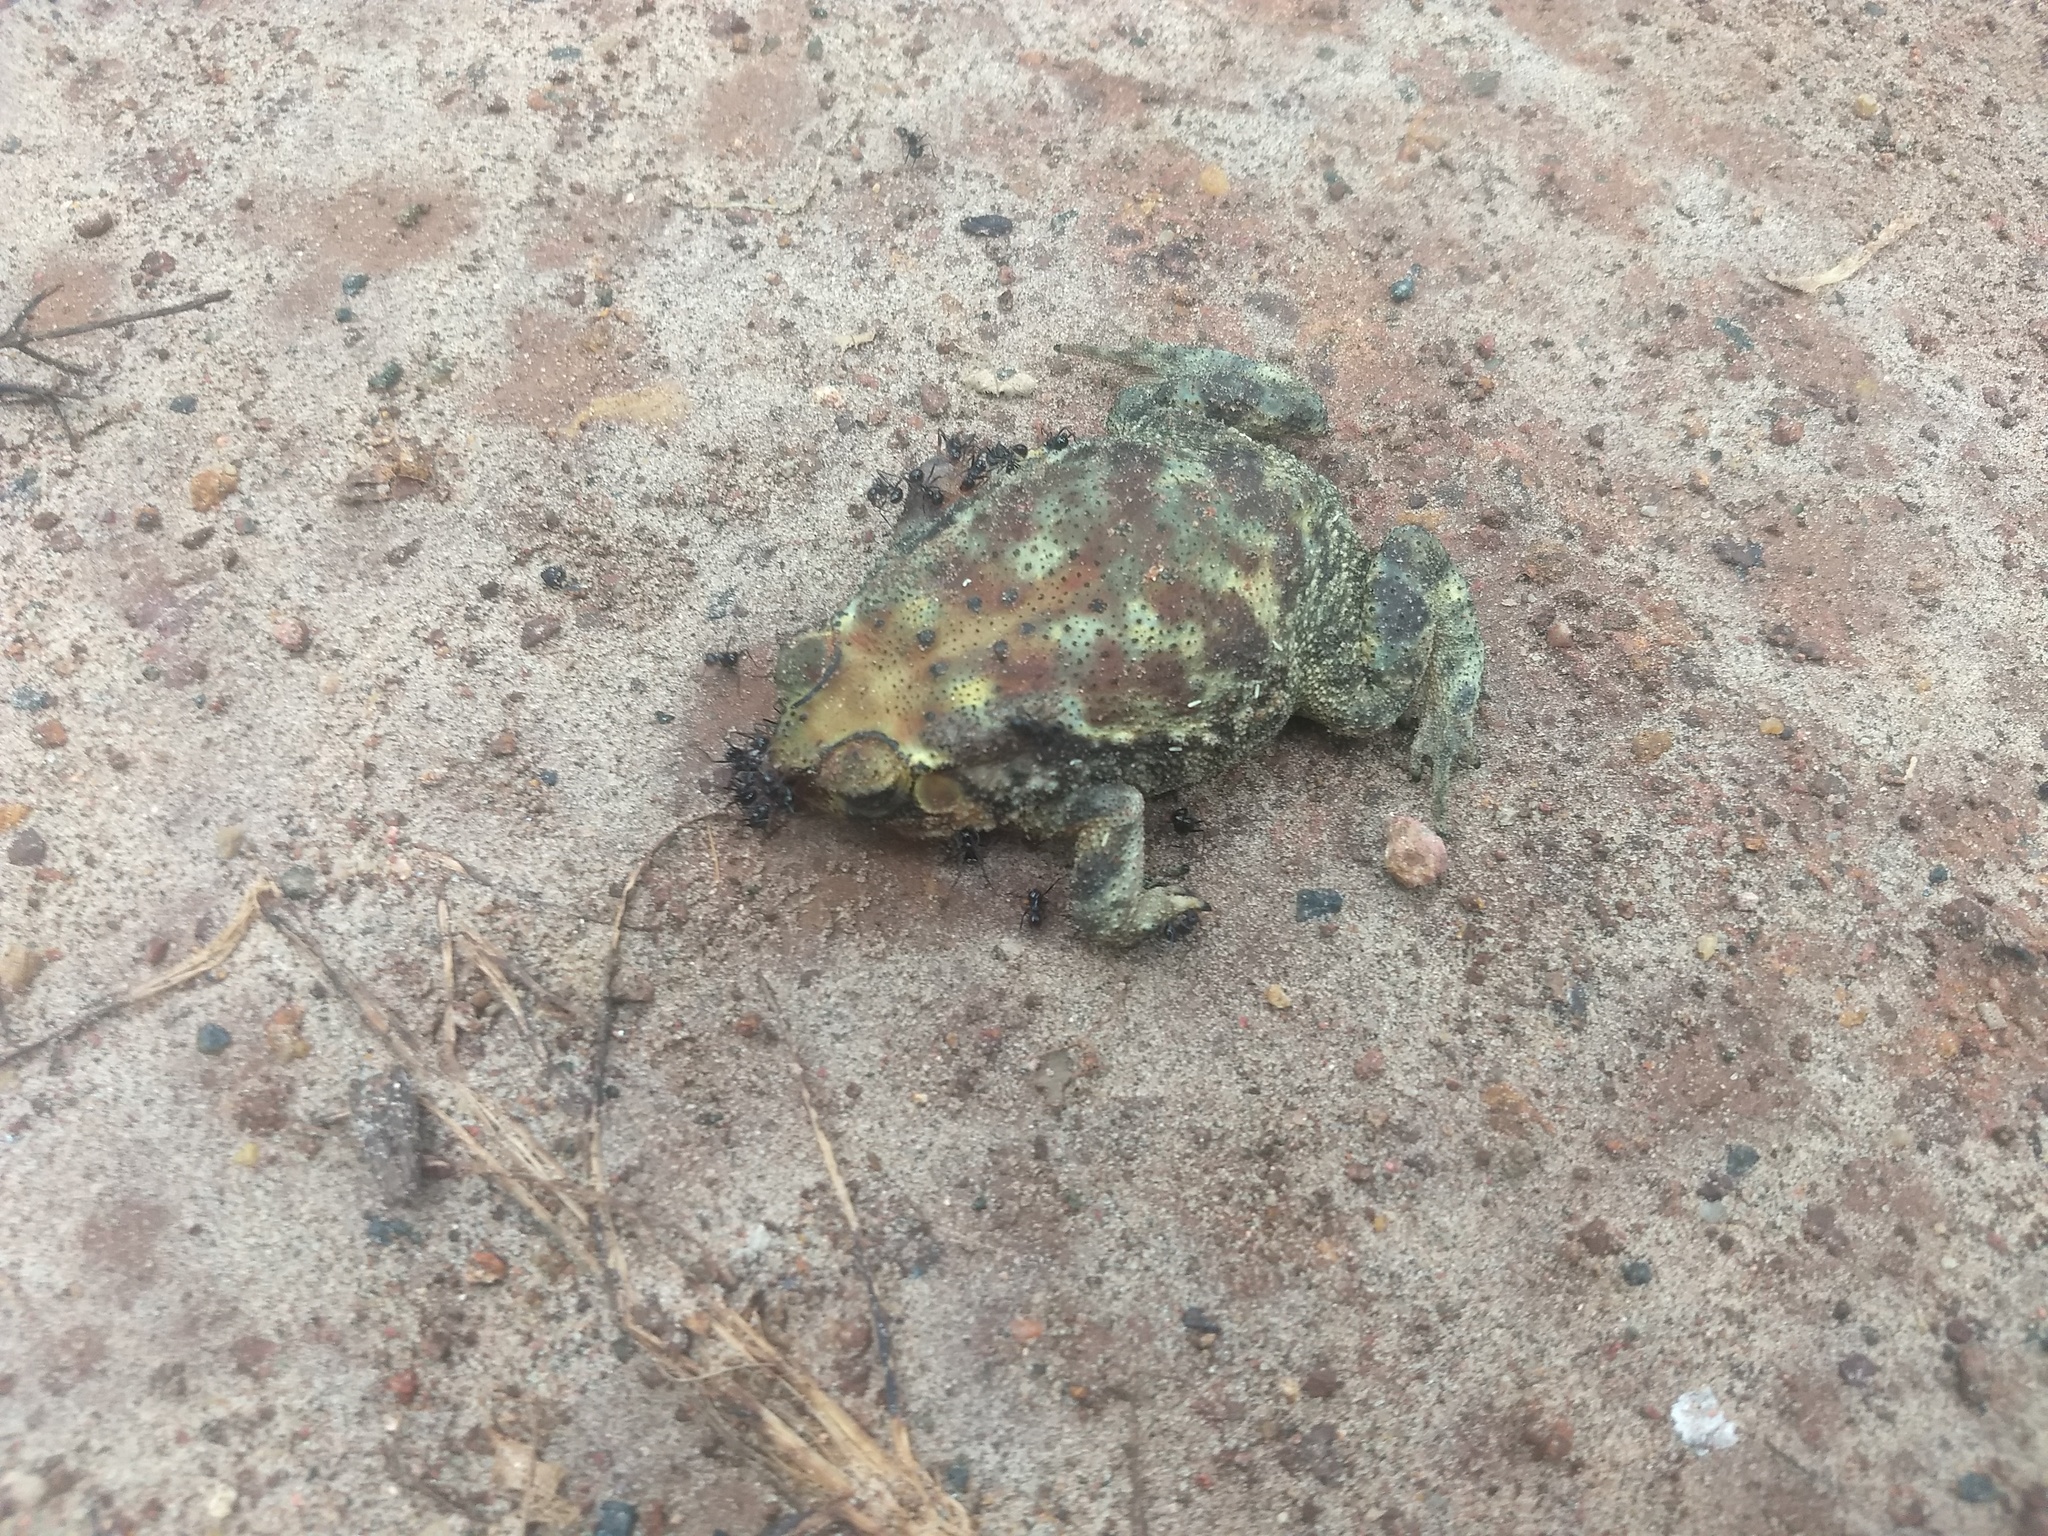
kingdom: Animalia
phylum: Chordata
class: Amphibia
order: Anura
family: Bufonidae
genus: Duttaphrynus
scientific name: Duttaphrynus melanostictus
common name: Common sunda toad
